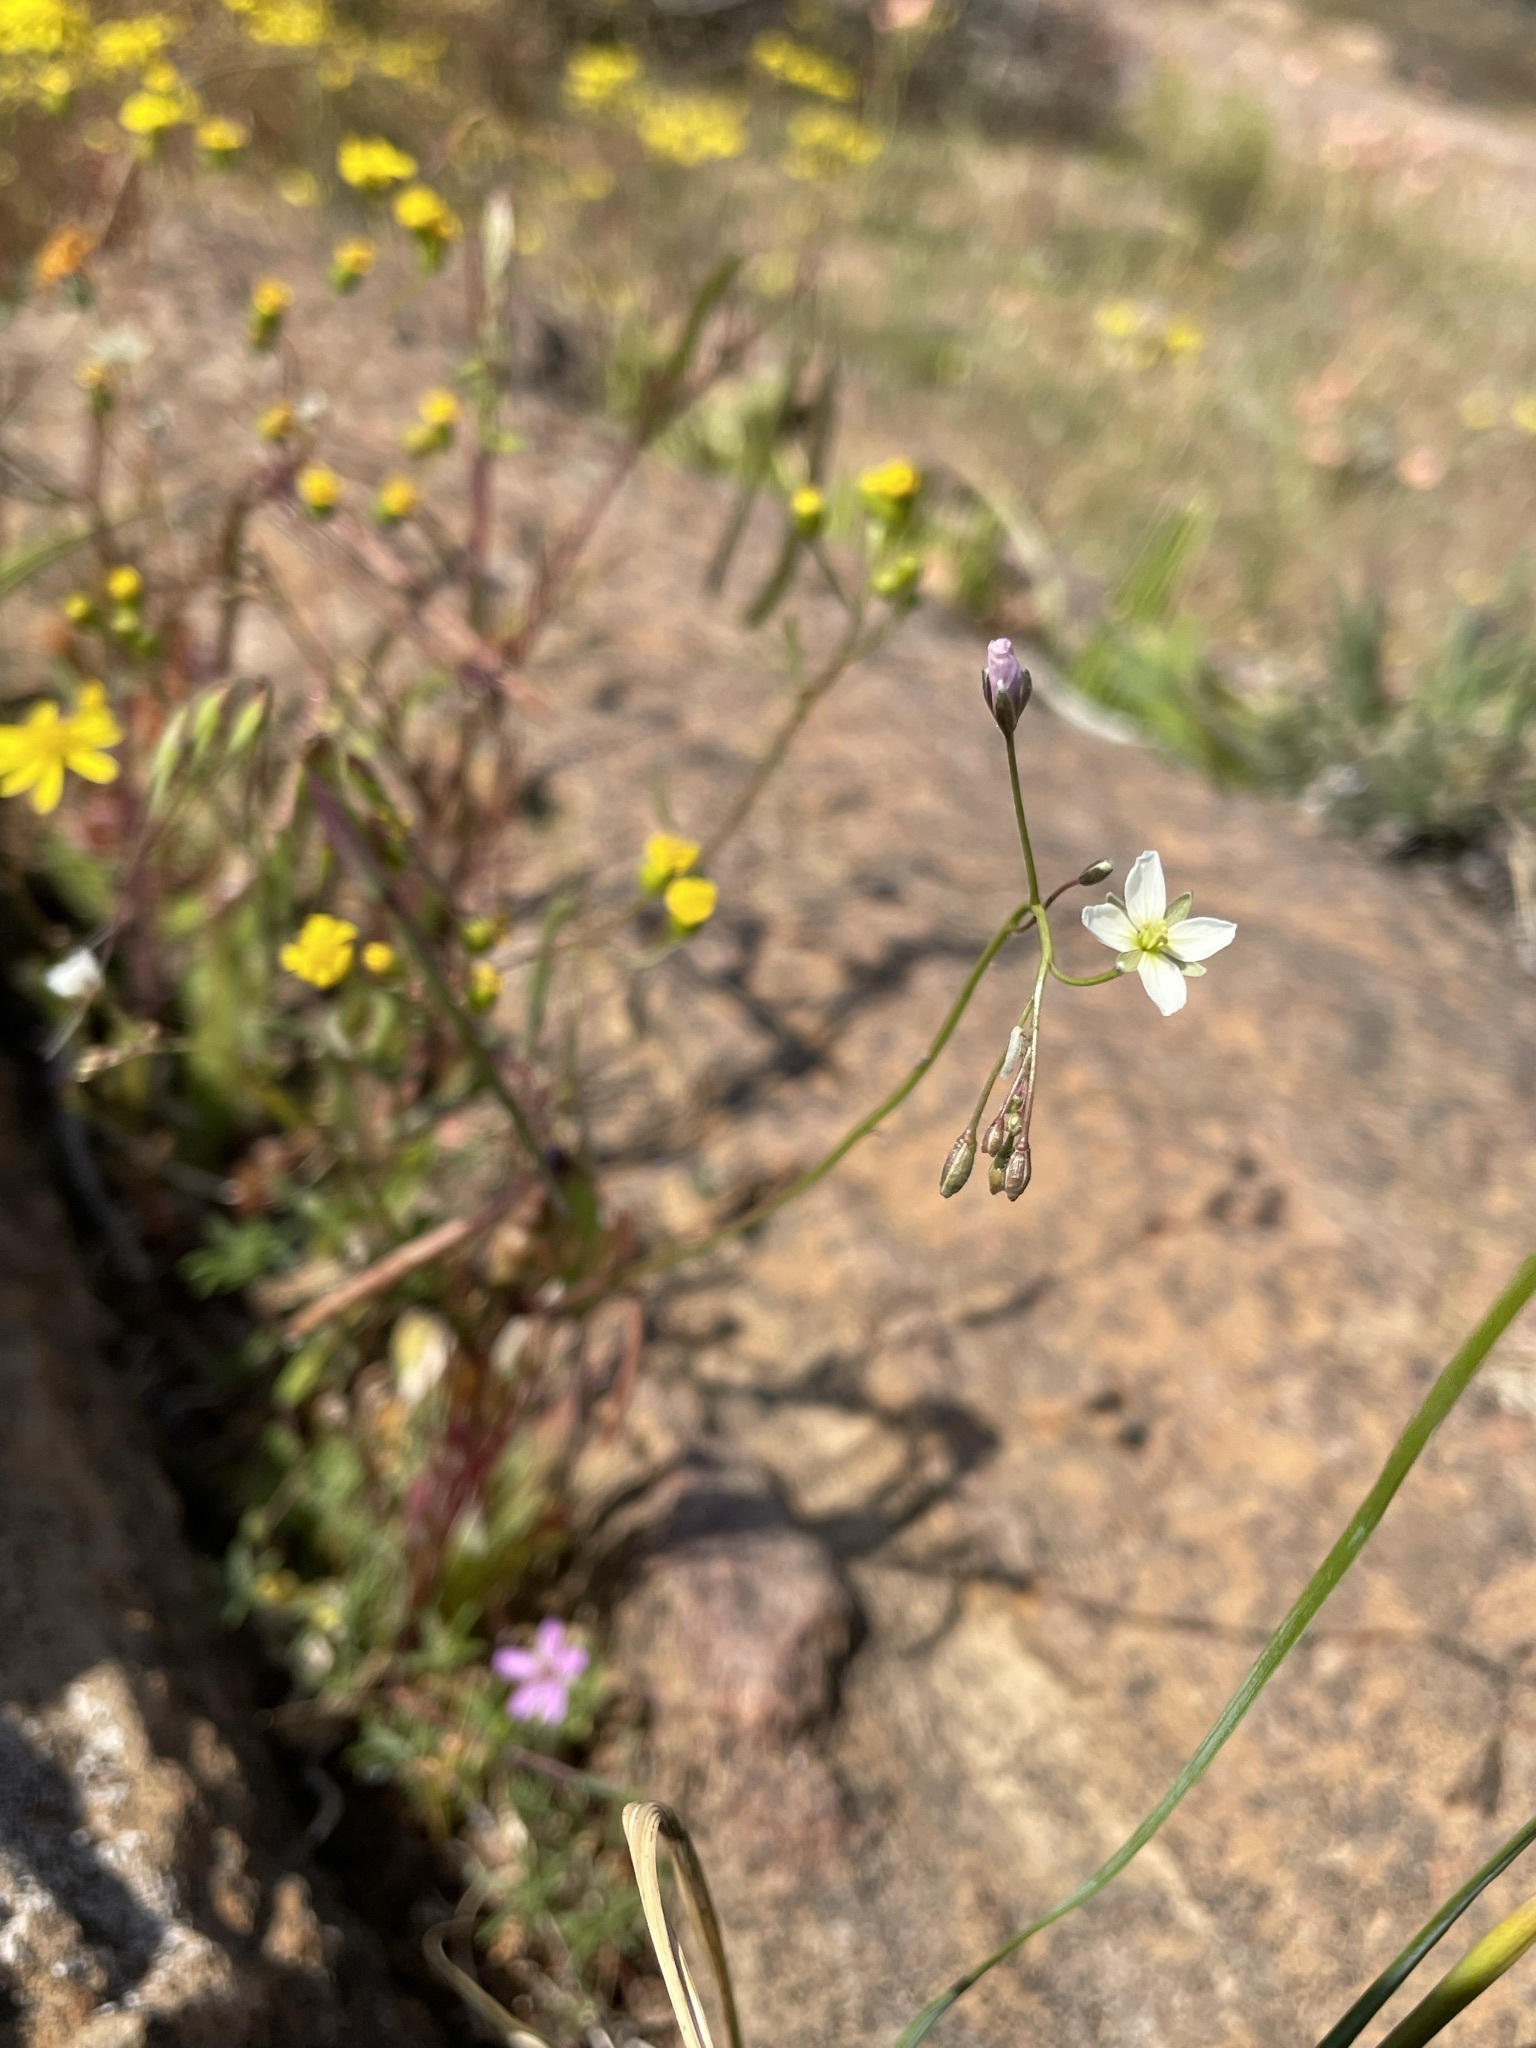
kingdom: Plantae
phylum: Tracheophyta
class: Magnoliopsida
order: Brassicales
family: Brassicaceae
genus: Heliophila
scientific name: Heliophila crithmifolia
